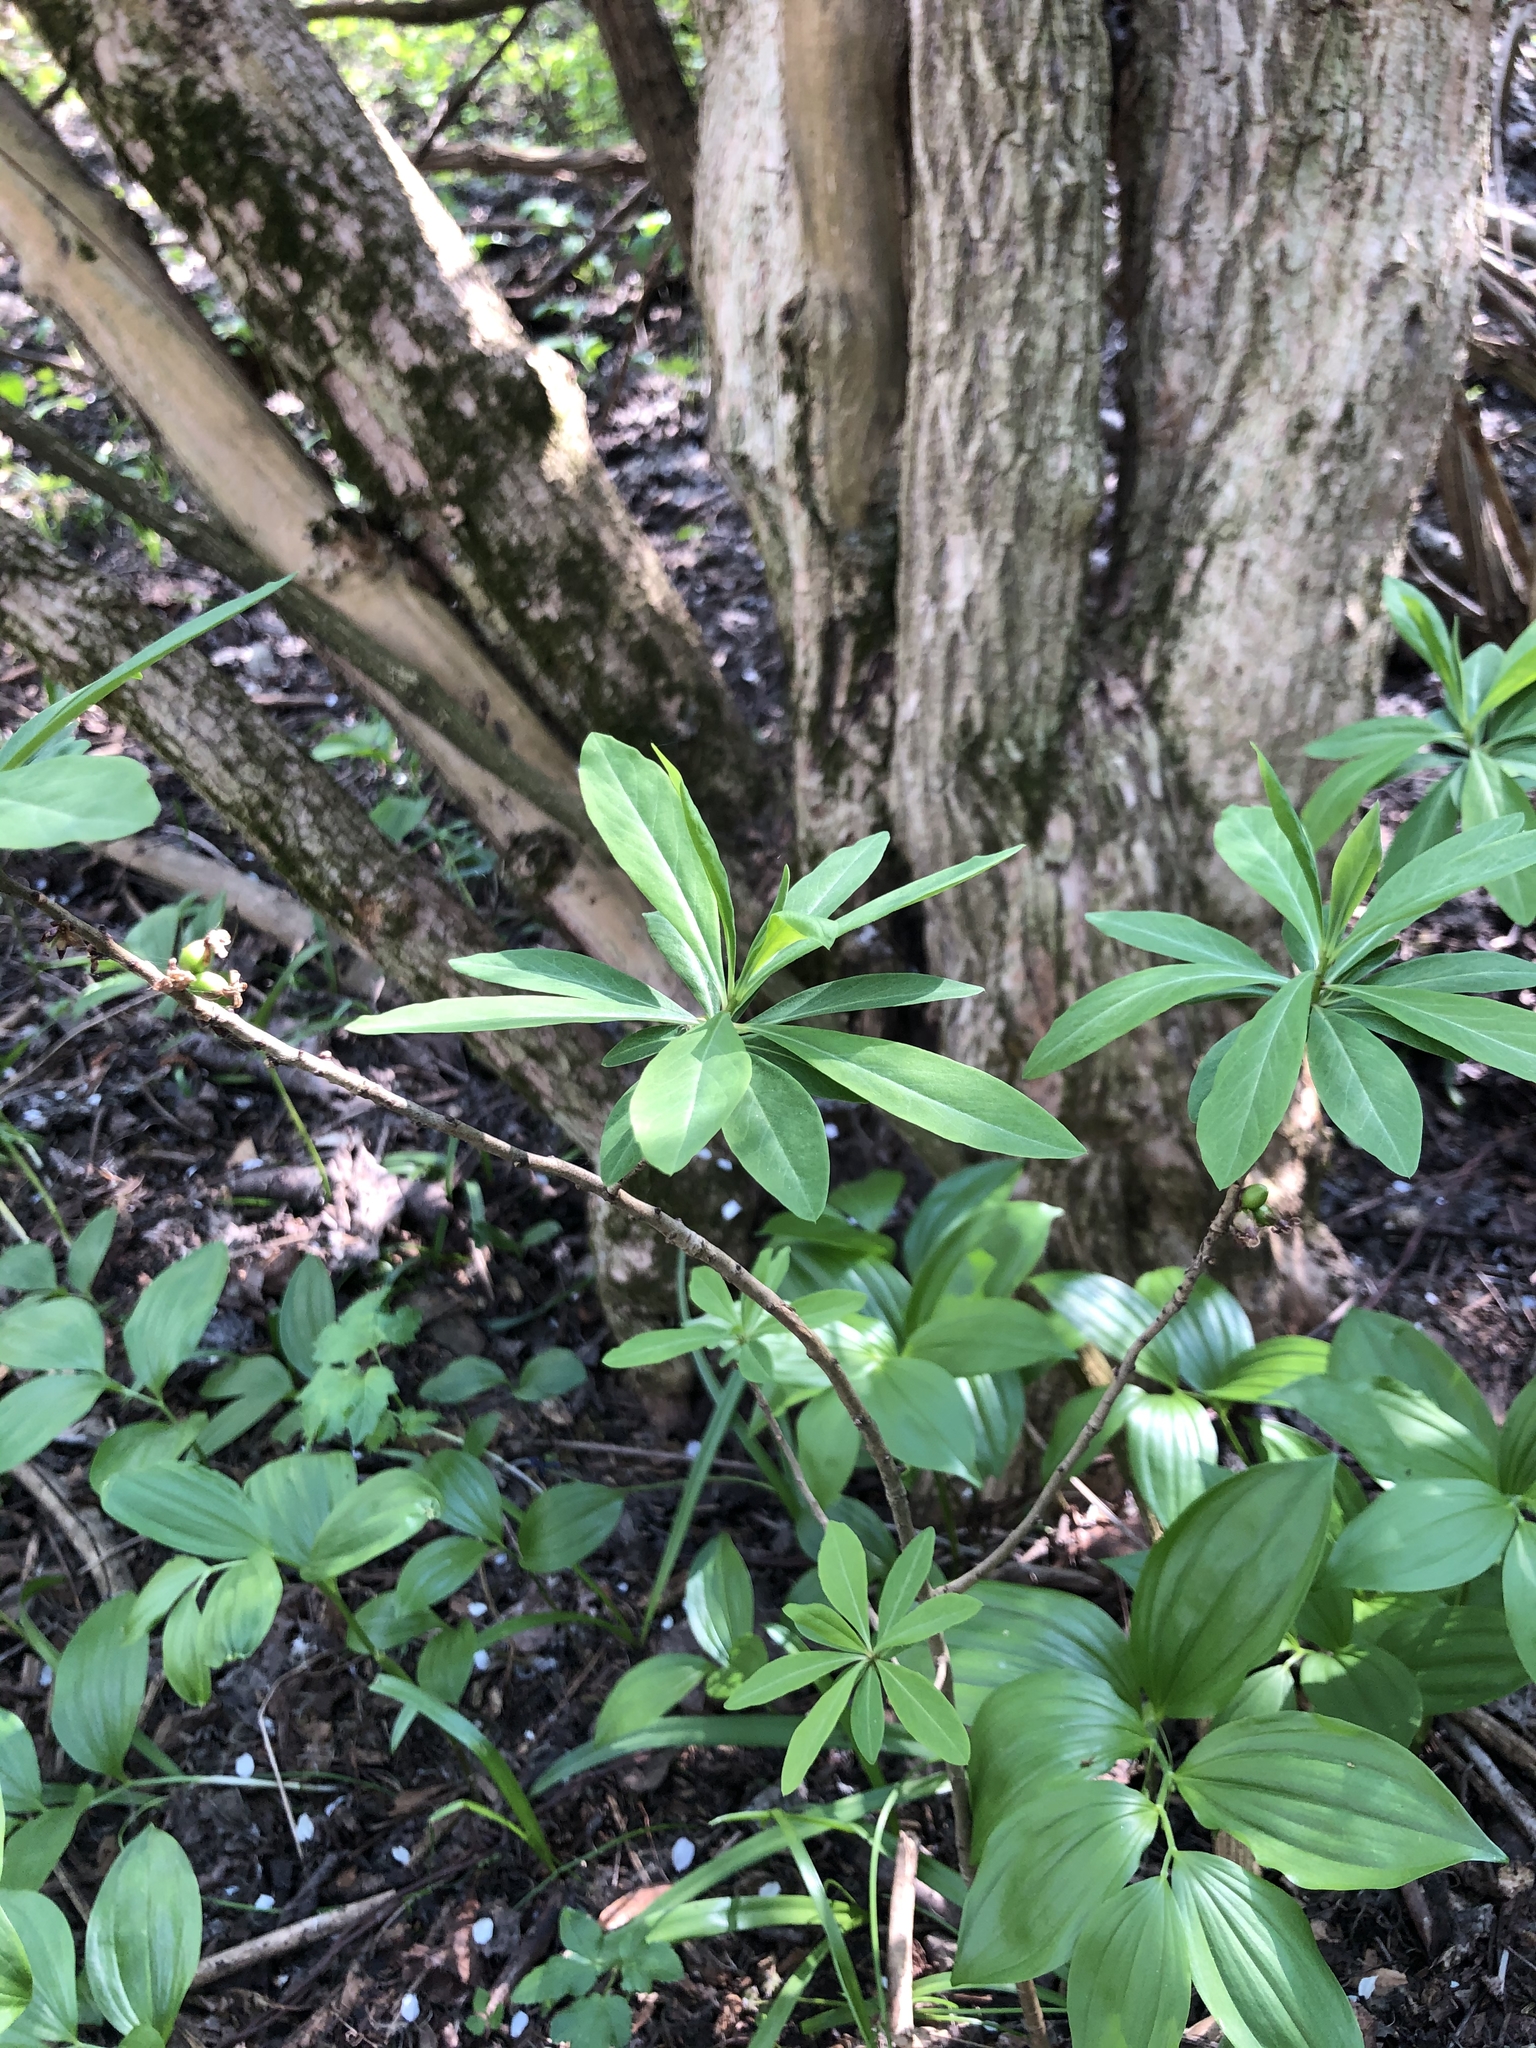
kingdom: Plantae
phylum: Tracheophyta
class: Magnoliopsida
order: Malvales
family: Thymelaeaceae
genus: Daphne
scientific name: Daphne mezereum
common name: Mezereon
